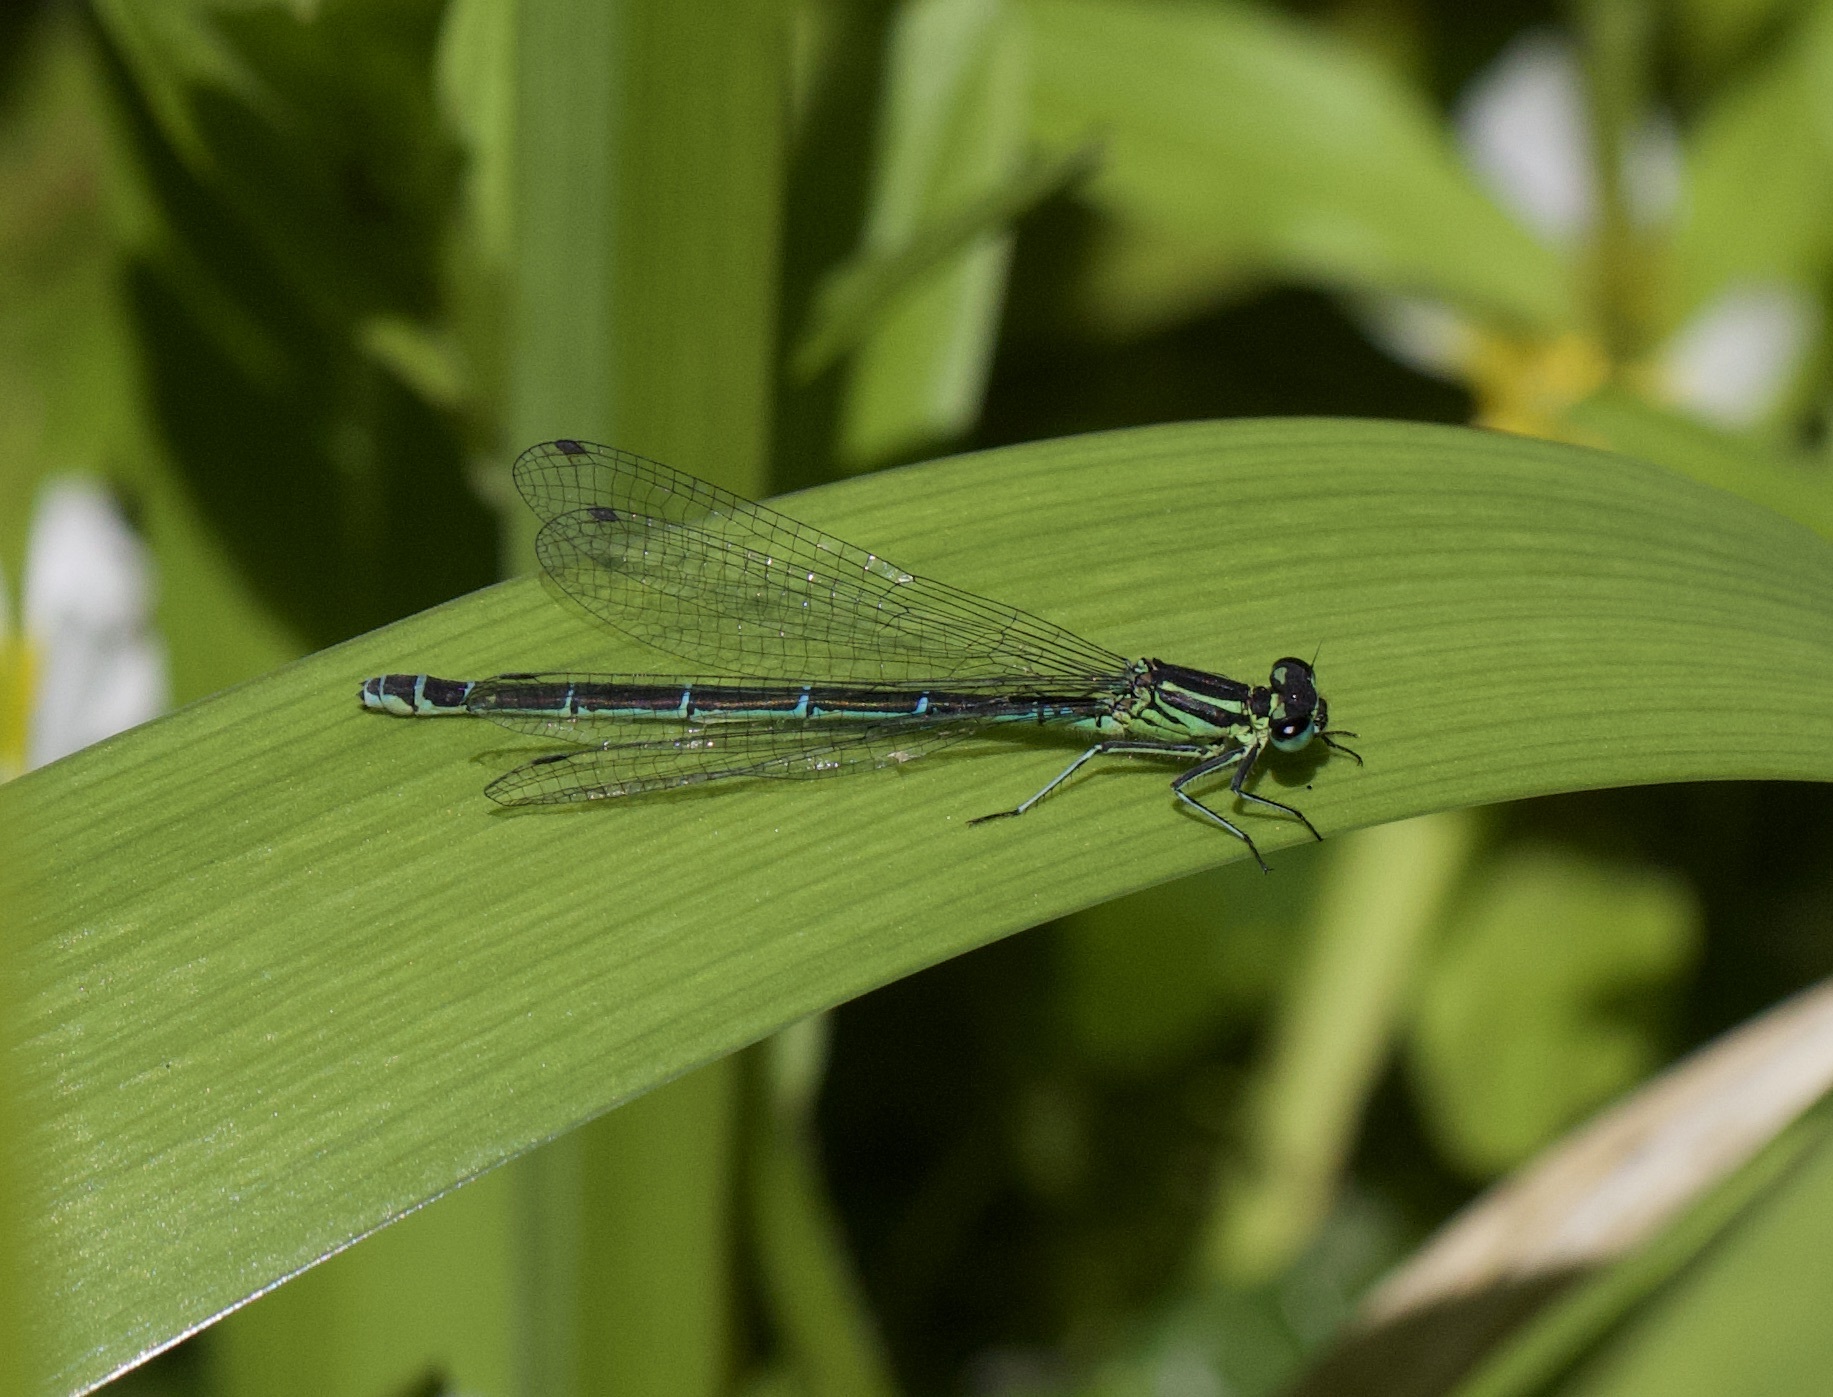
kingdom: Animalia
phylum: Arthropoda
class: Insecta
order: Odonata
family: Coenagrionidae
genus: Coenagrion
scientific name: Coenagrion puella
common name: Azure damselfly
